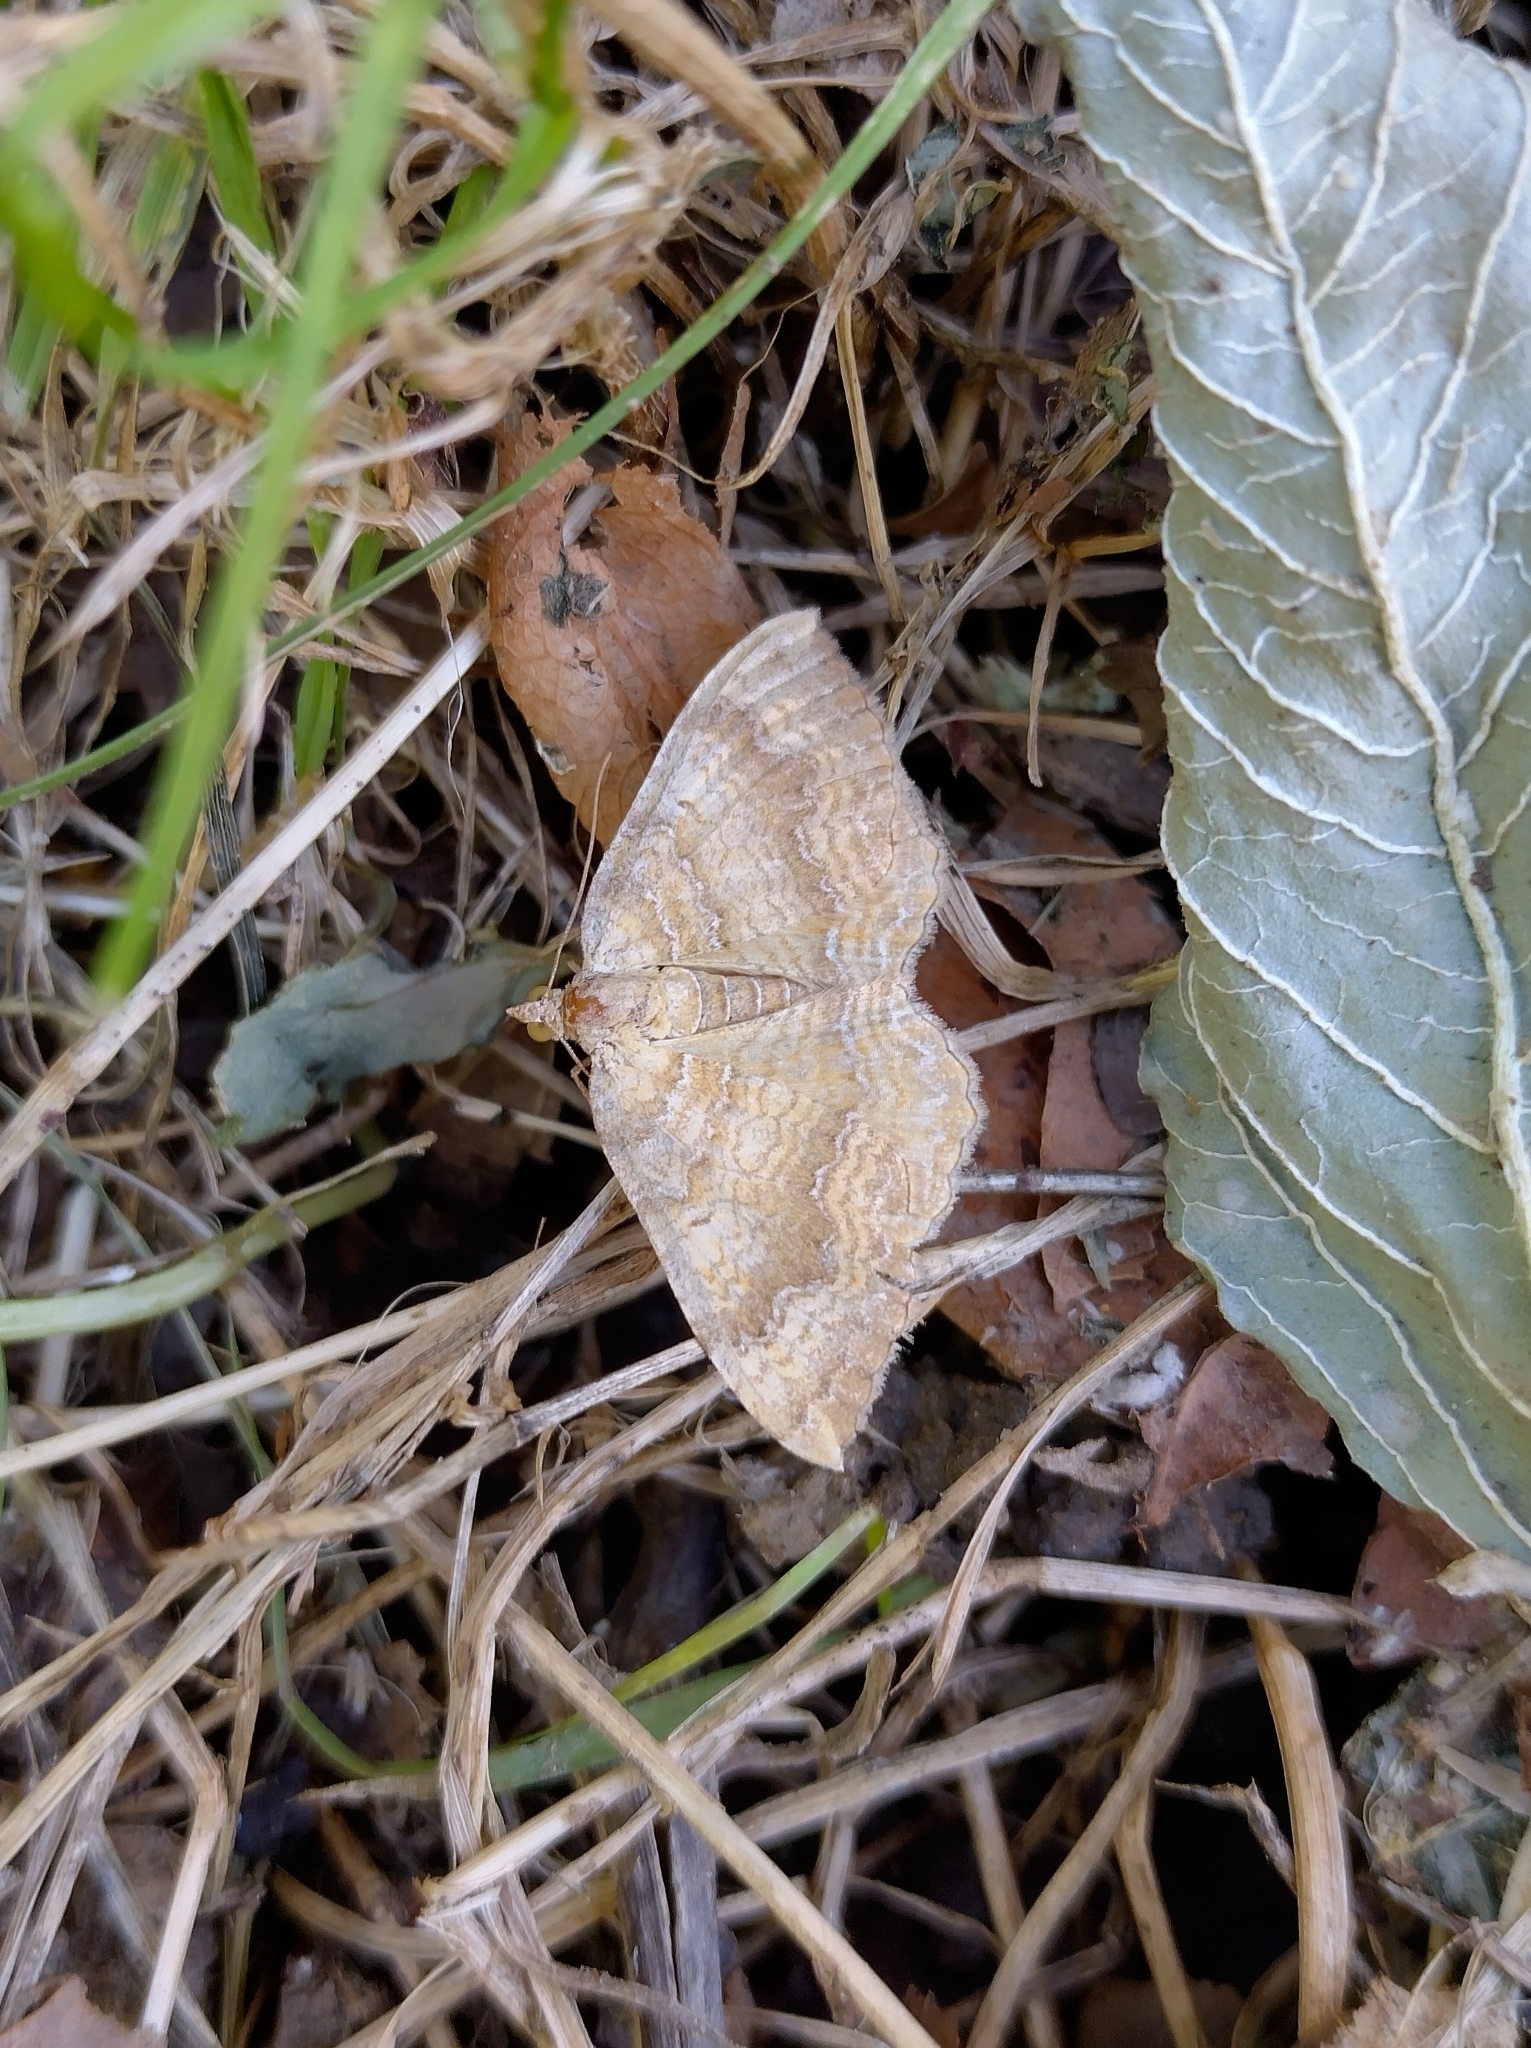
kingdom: Animalia
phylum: Arthropoda
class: Insecta
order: Lepidoptera
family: Geometridae
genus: Camptogramma
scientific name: Camptogramma bilineata
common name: Yellow shell
